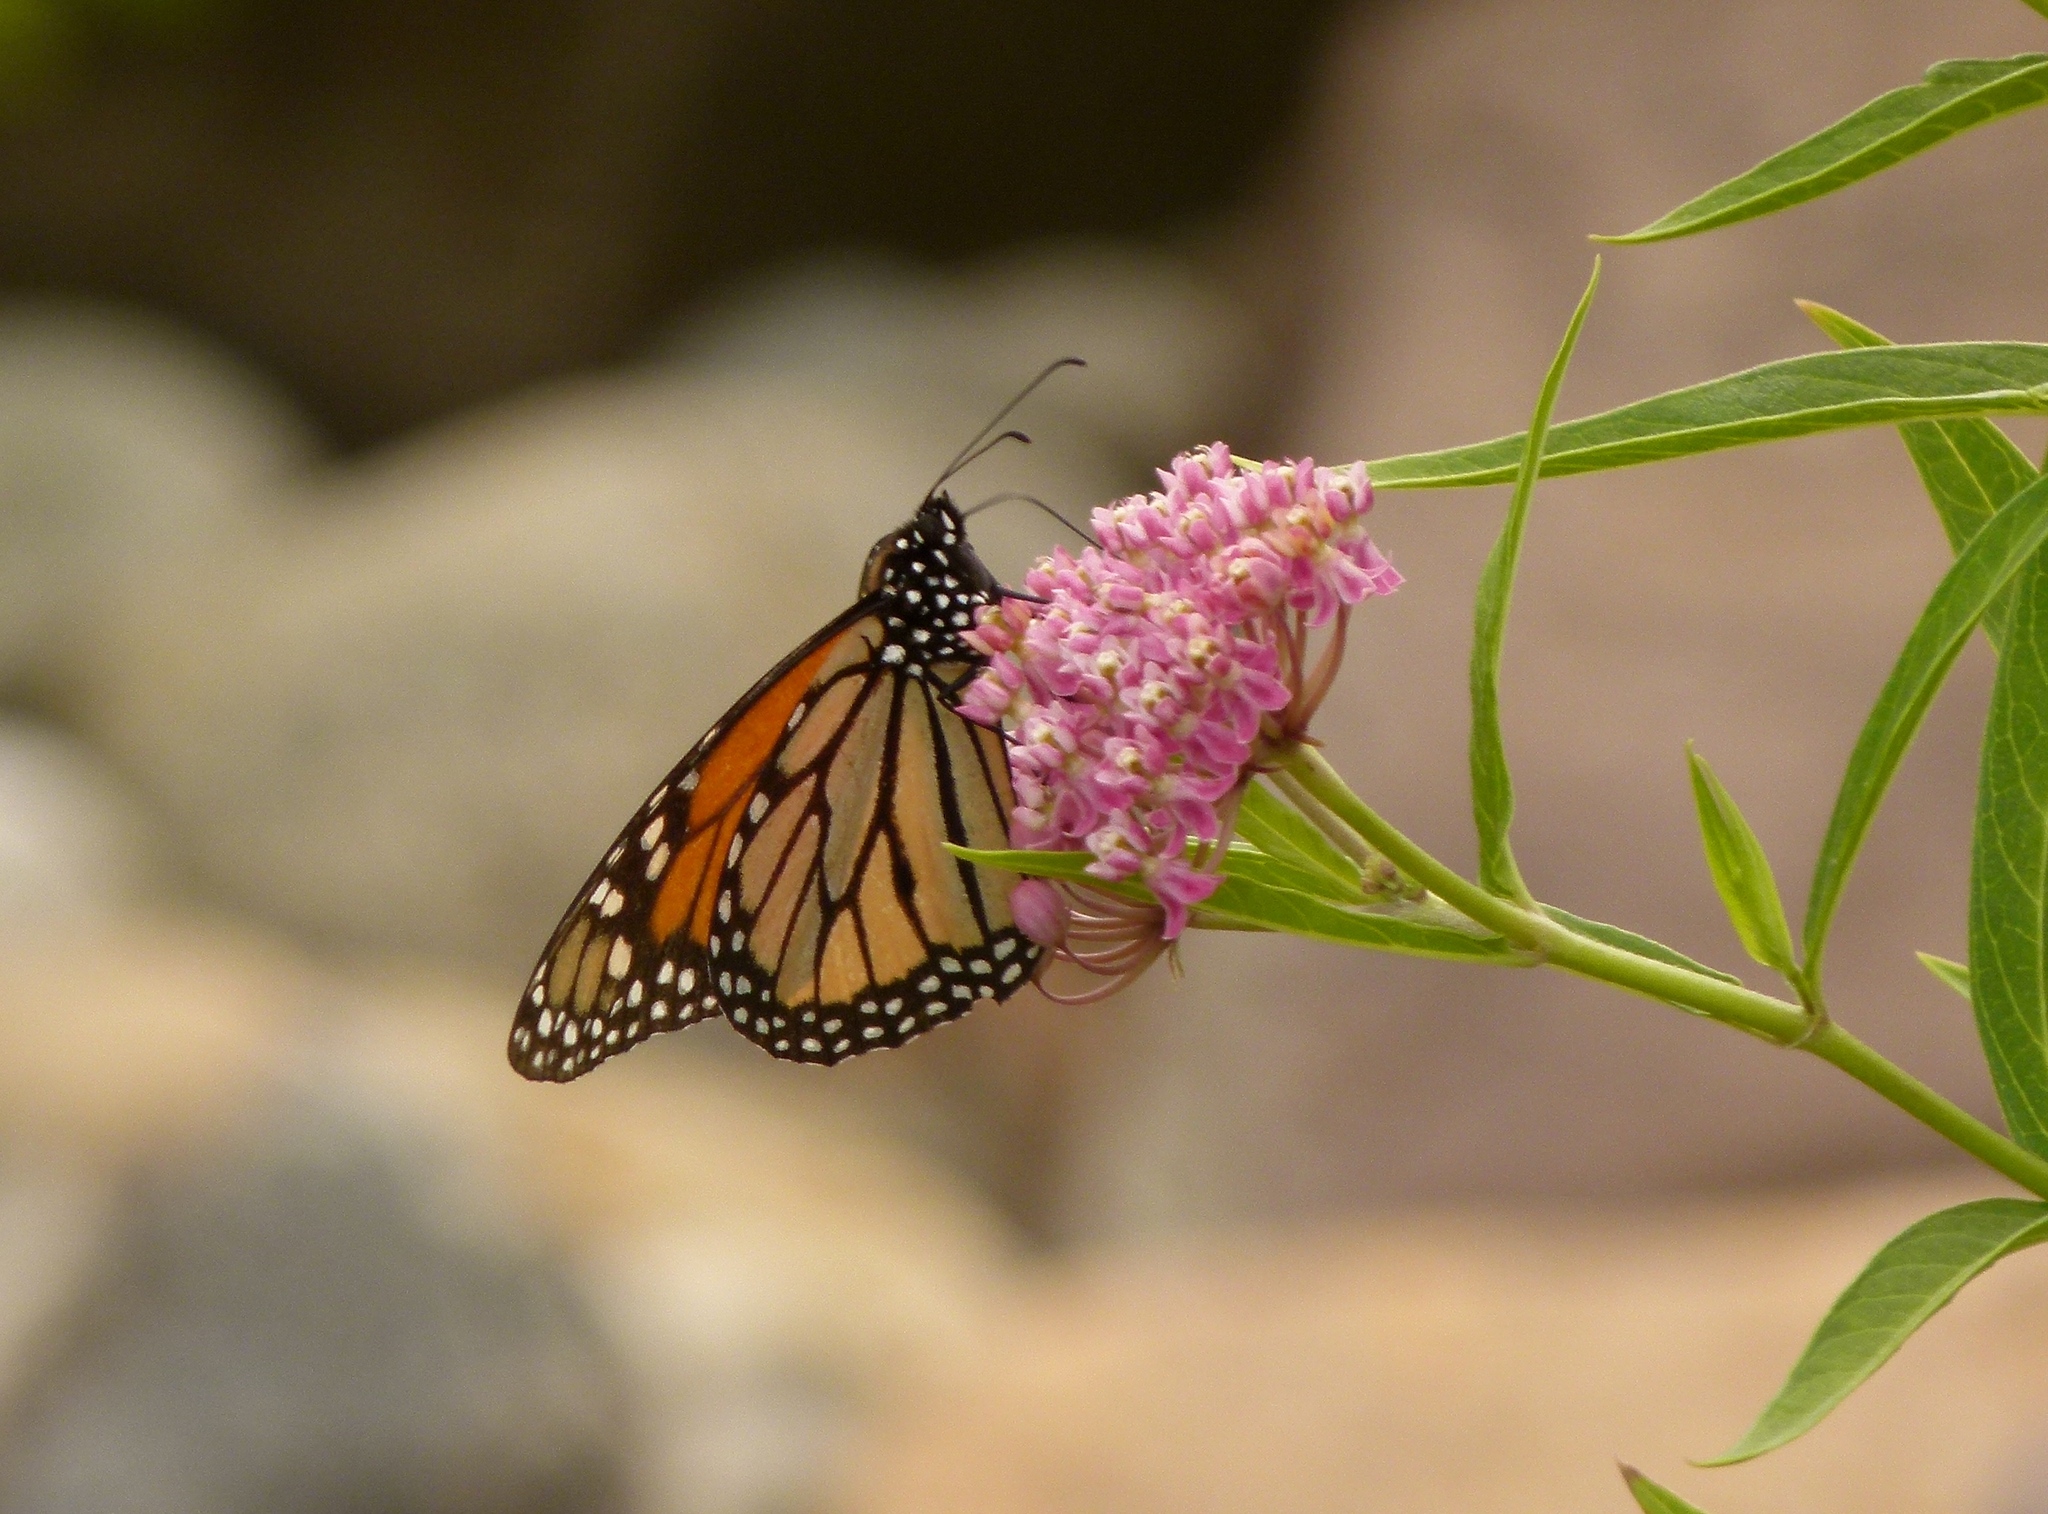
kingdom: Animalia
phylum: Arthropoda
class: Insecta
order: Lepidoptera
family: Nymphalidae
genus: Danaus
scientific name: Danaus plexippus
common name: Monarch
